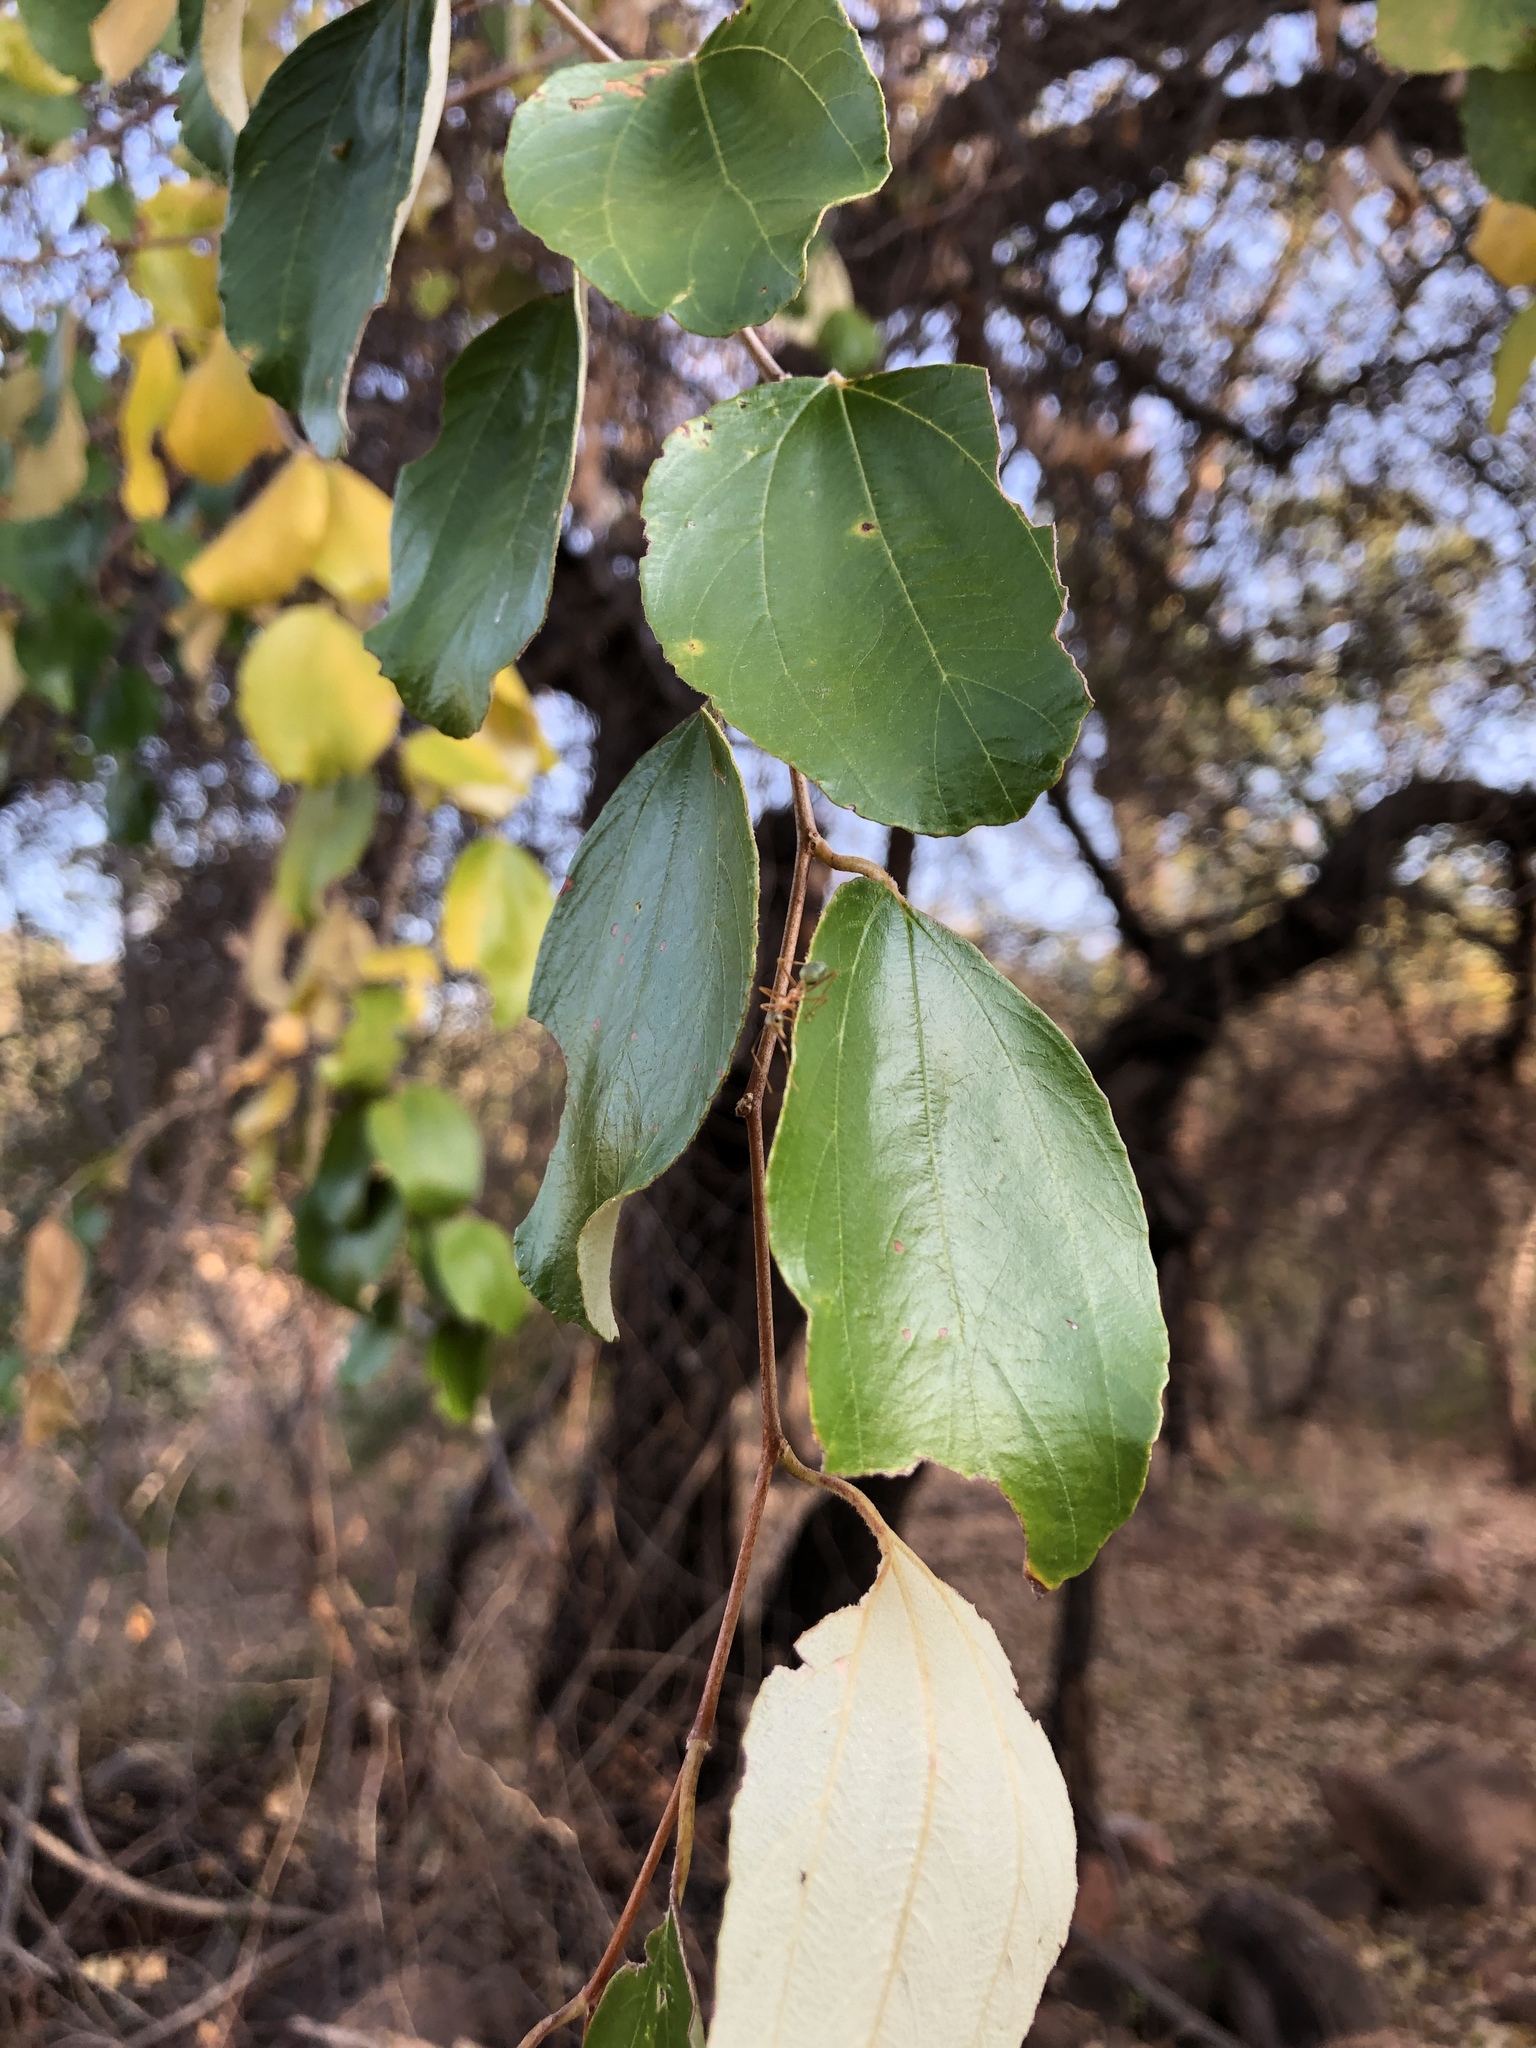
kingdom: Plantae
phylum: Tracheophyta
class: Magnoliopsida
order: Rosales
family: Rhamnaceae
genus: Ziziphus
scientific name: Ziziphus mauritiana
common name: Indian jujube
